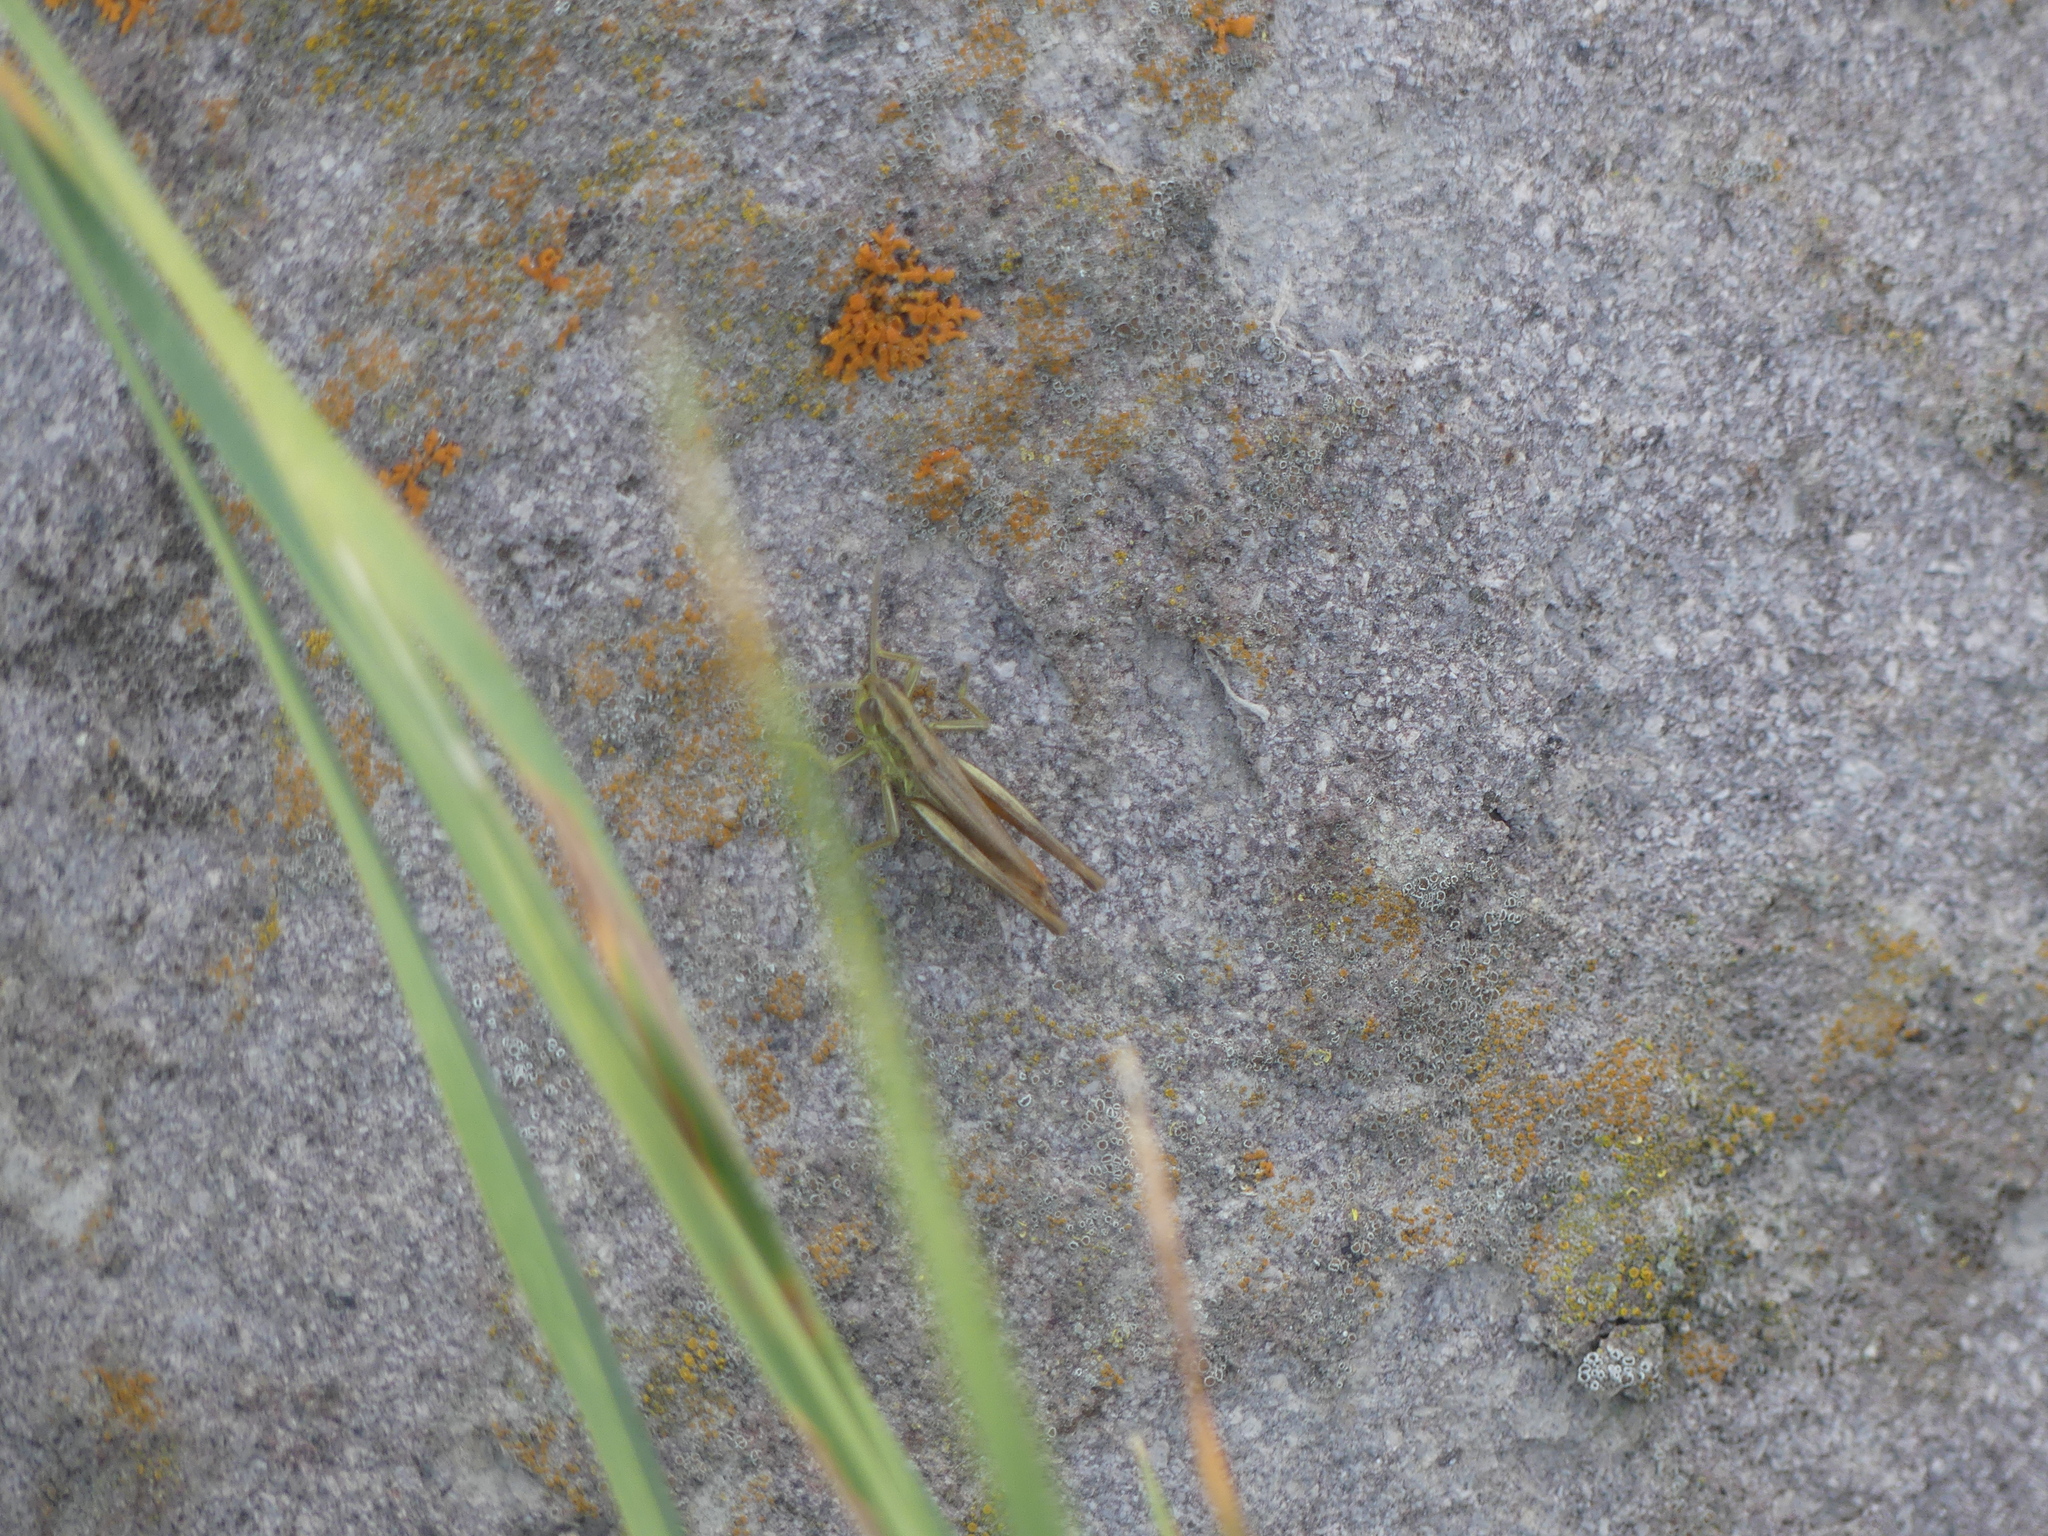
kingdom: Animalia
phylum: Arthropoda
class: Insecta
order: Orthoptera
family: Acrididae
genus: Euchorthippus
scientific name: Euchorthippus declivus
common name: Common straw grasshopper
